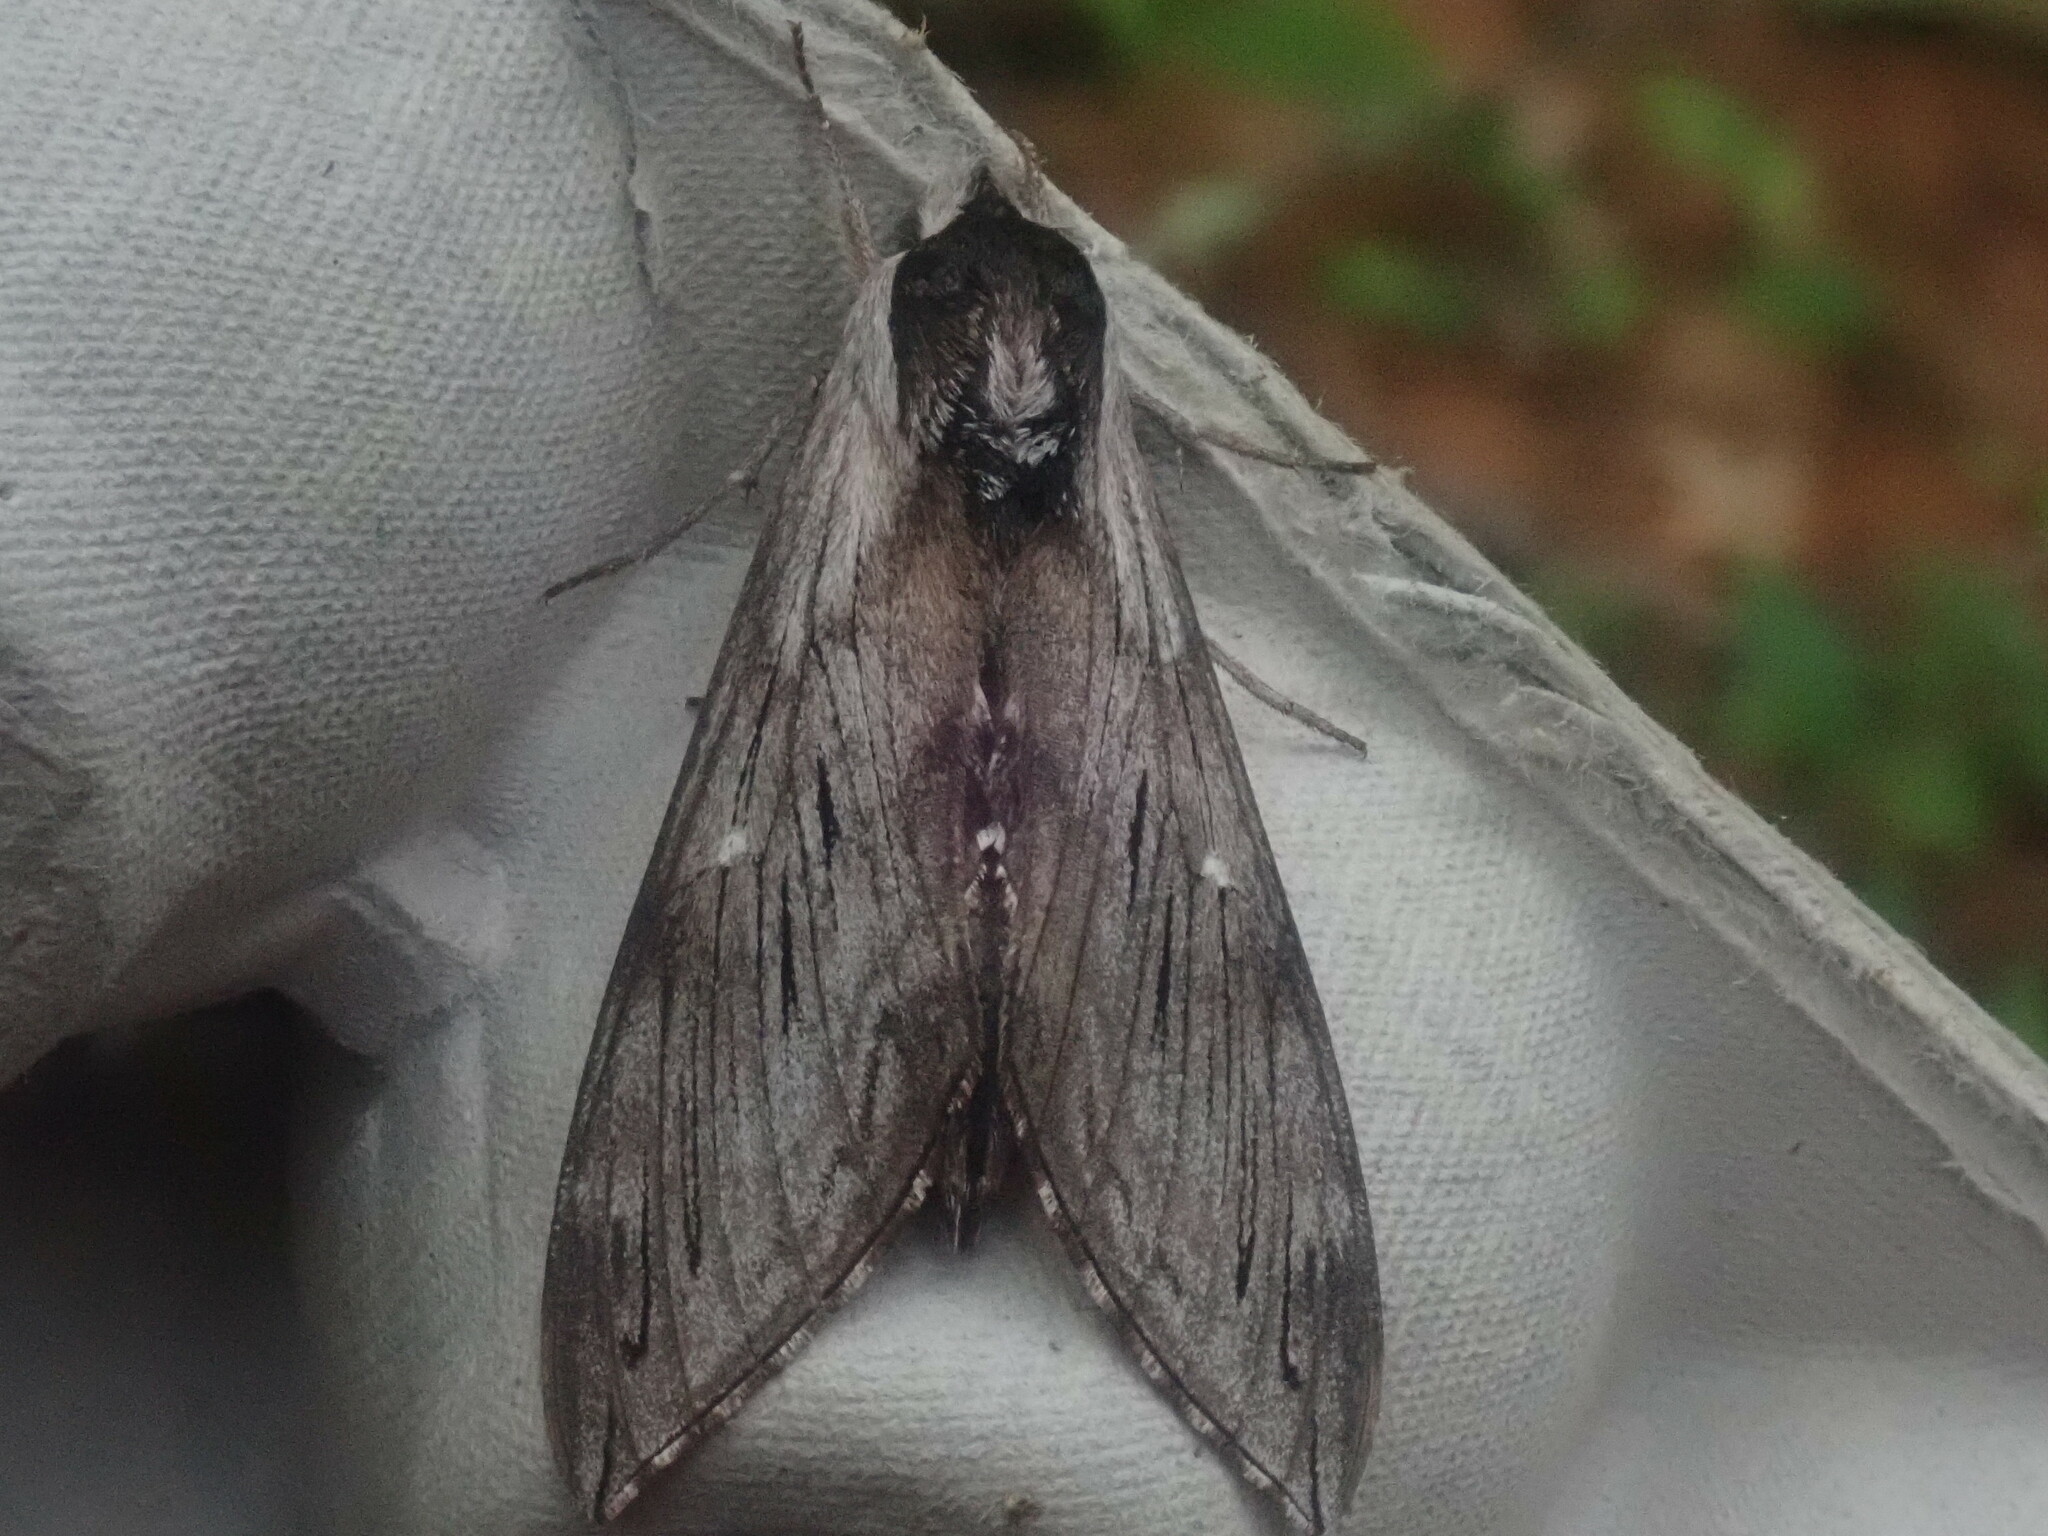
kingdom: Animalia
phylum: Arthropoda
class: Insecta
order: Lepidoptera
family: Sphingidae
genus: Sphinx
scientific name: Sphinx
